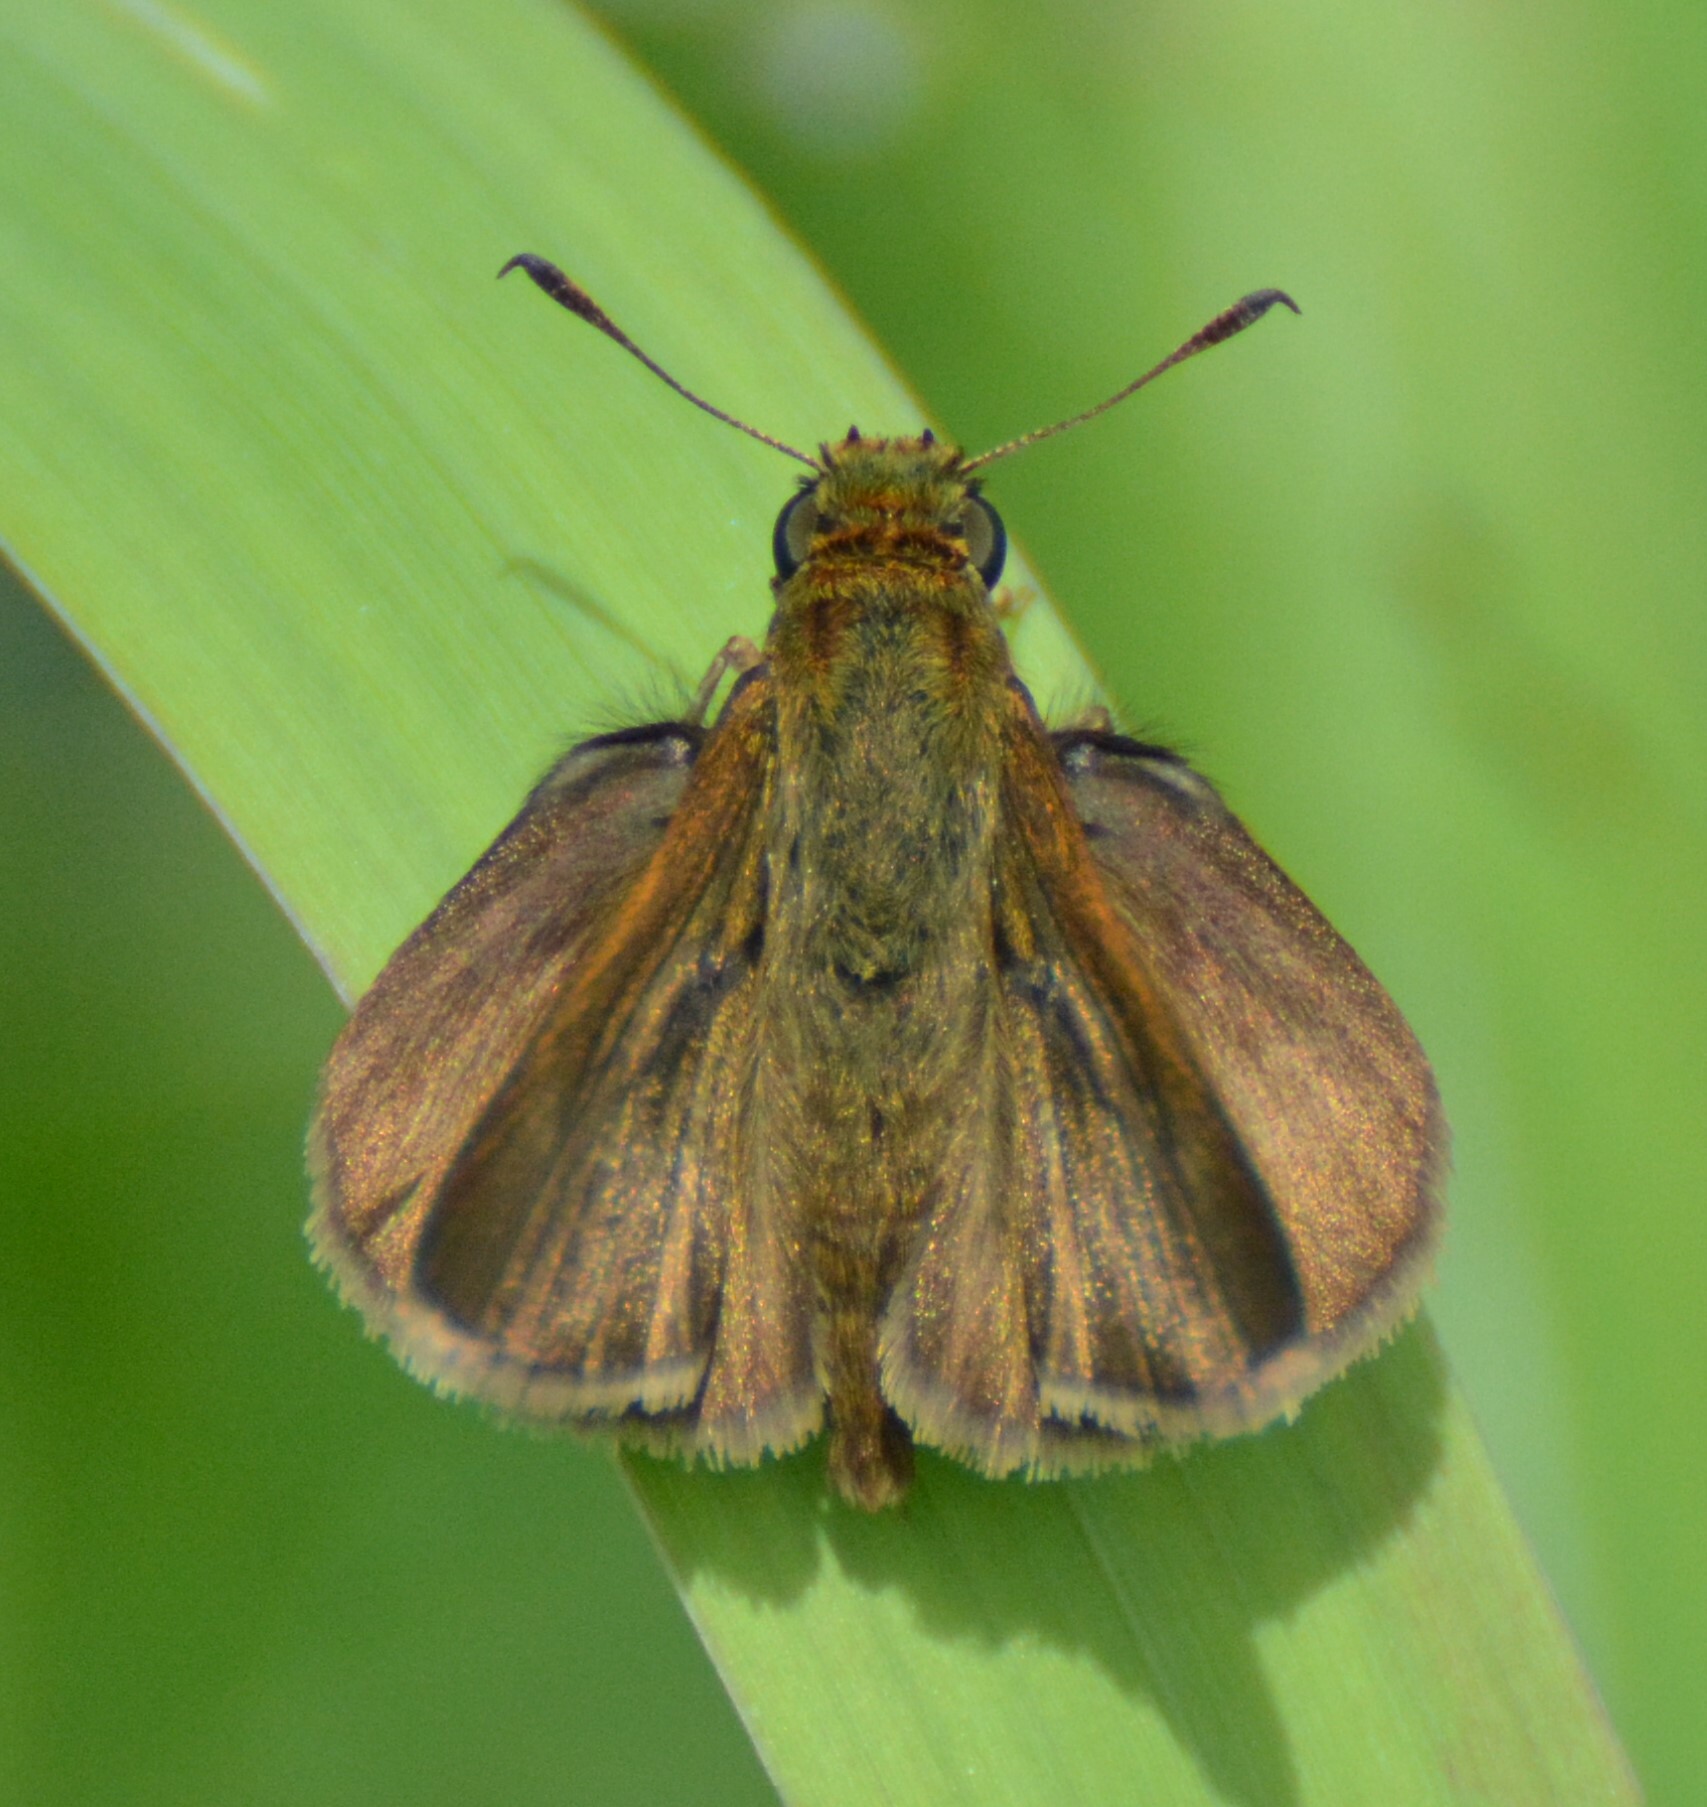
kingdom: Animalia
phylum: Arthropoda
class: Insecta
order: Lepidoptera
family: Hesperiidae
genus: Euphyes
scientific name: Euphyes vestris
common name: Dun skipper
